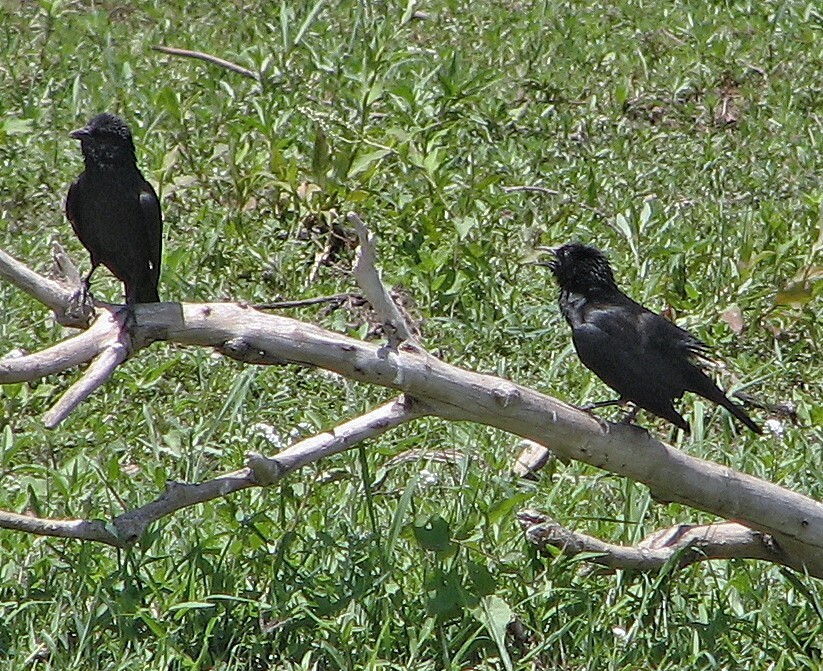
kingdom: Animalia
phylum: Chordata
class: Aves
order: Passeriformes
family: Icteridae
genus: Gnorimopsar
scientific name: Gnorimopsar chopi
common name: Chopi blackbird
